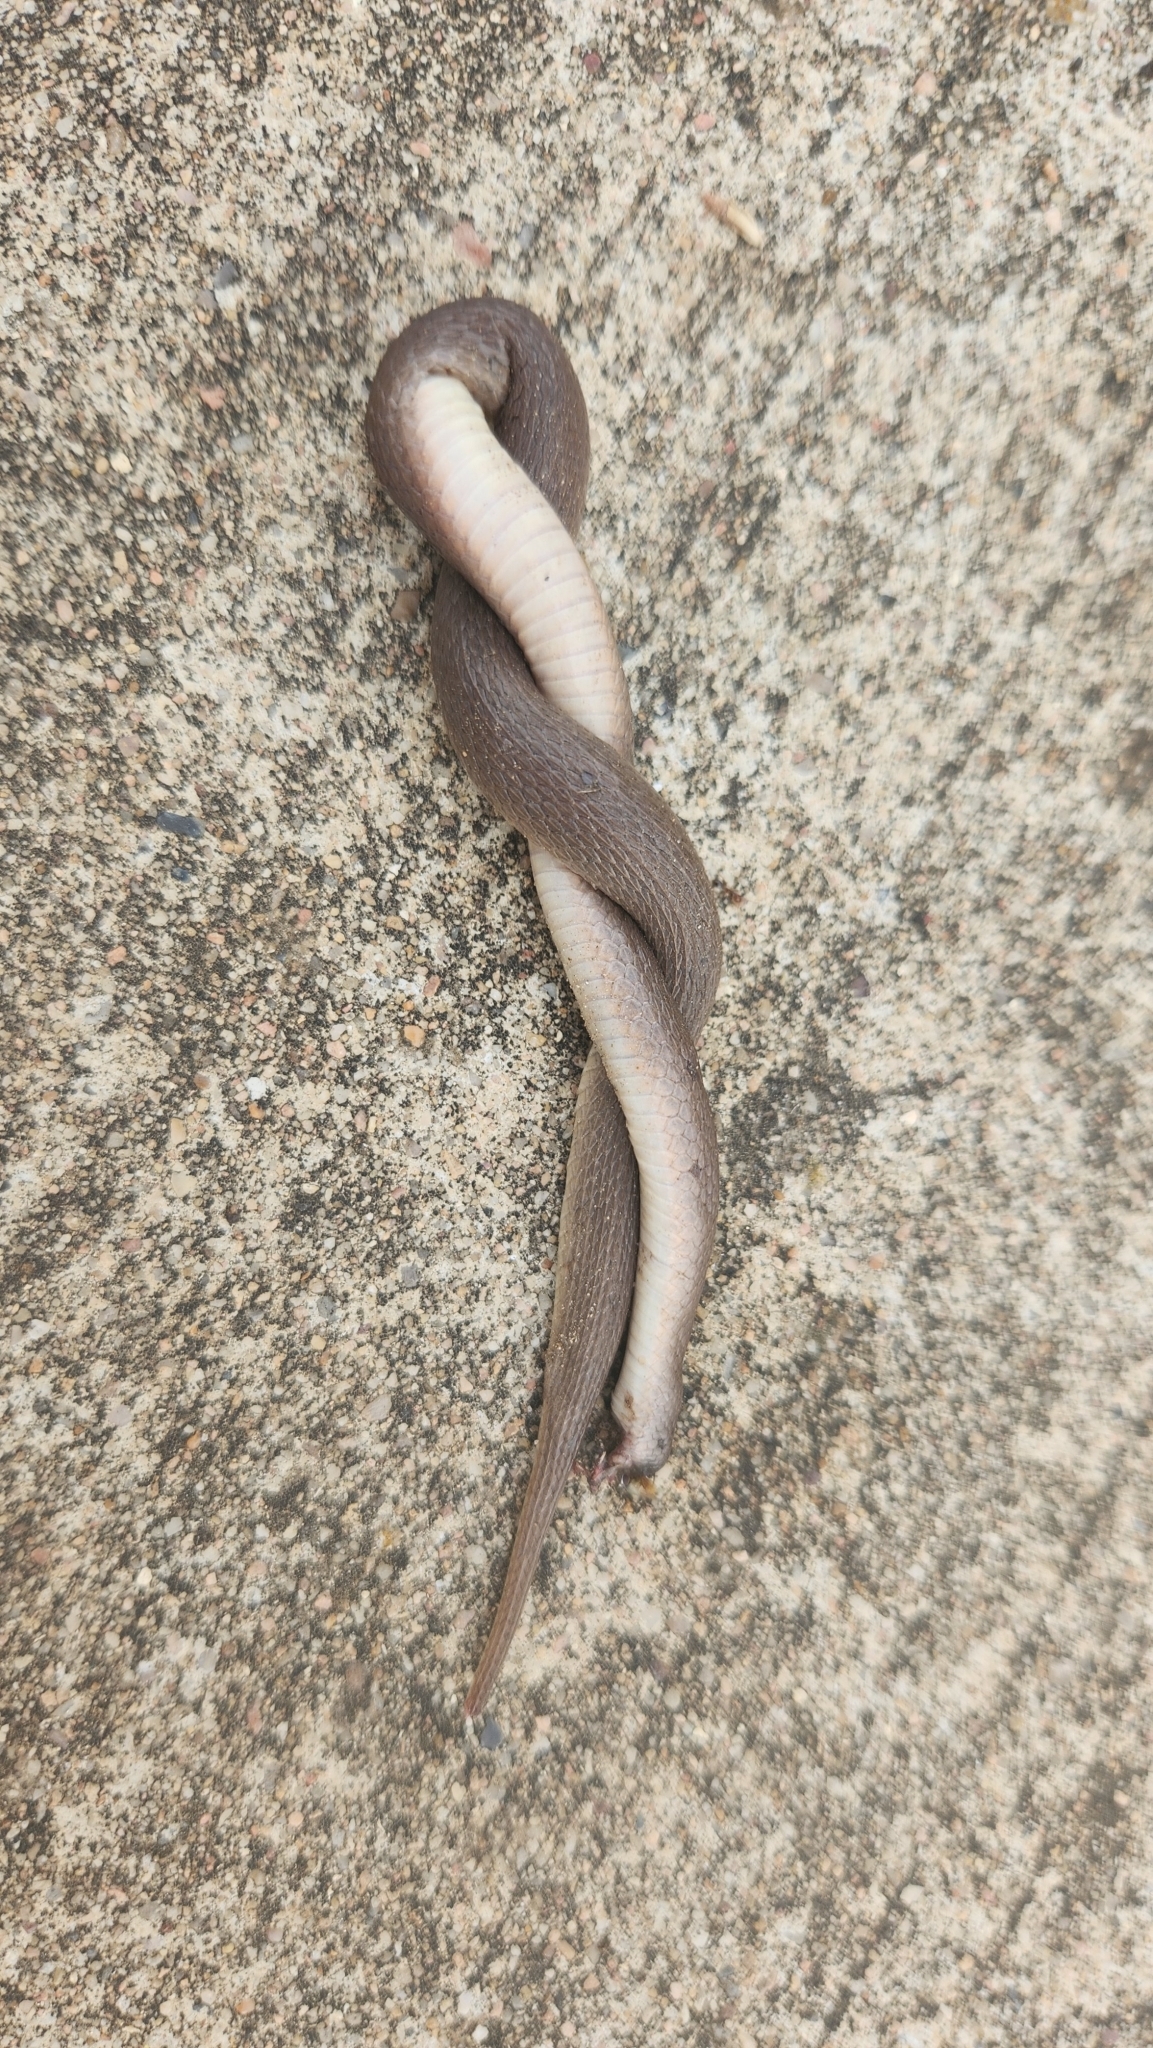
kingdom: Animalia
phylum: Chordata
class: Squamata
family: Colubridae
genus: Haldea
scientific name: Haldea striatula
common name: Rough earth snake
